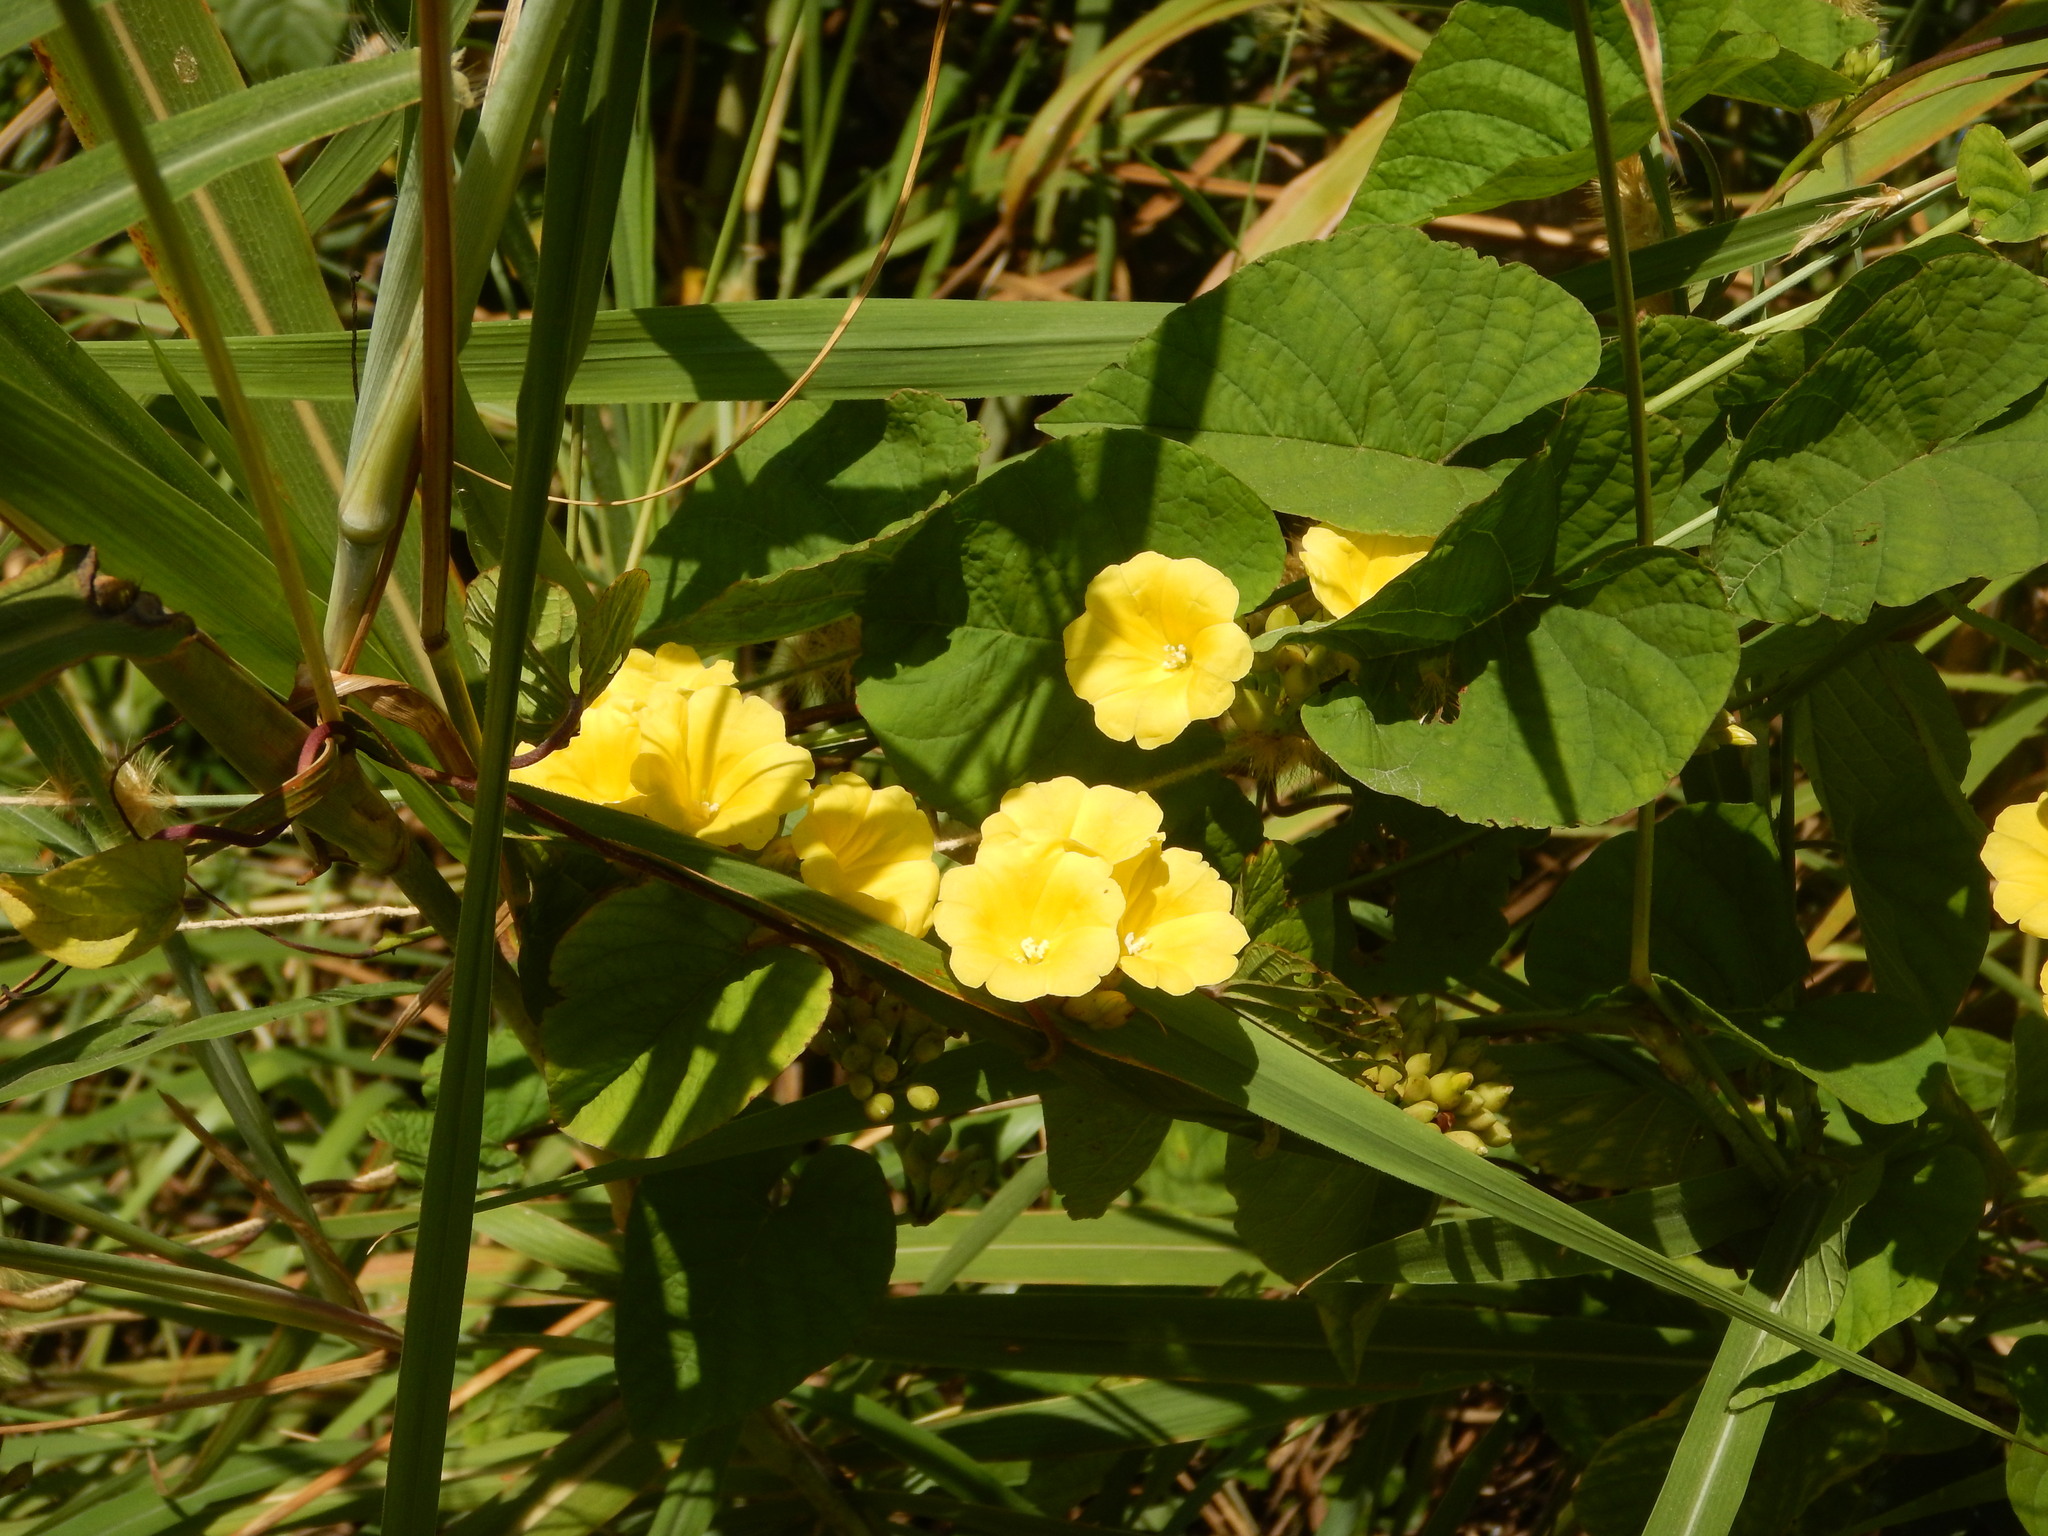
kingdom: Plantae
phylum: Tracheophyta
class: Magnoliopsida
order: Solanales
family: Convolvulaceae
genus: Camonea
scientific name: Camonea umbellata
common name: Hogvine
